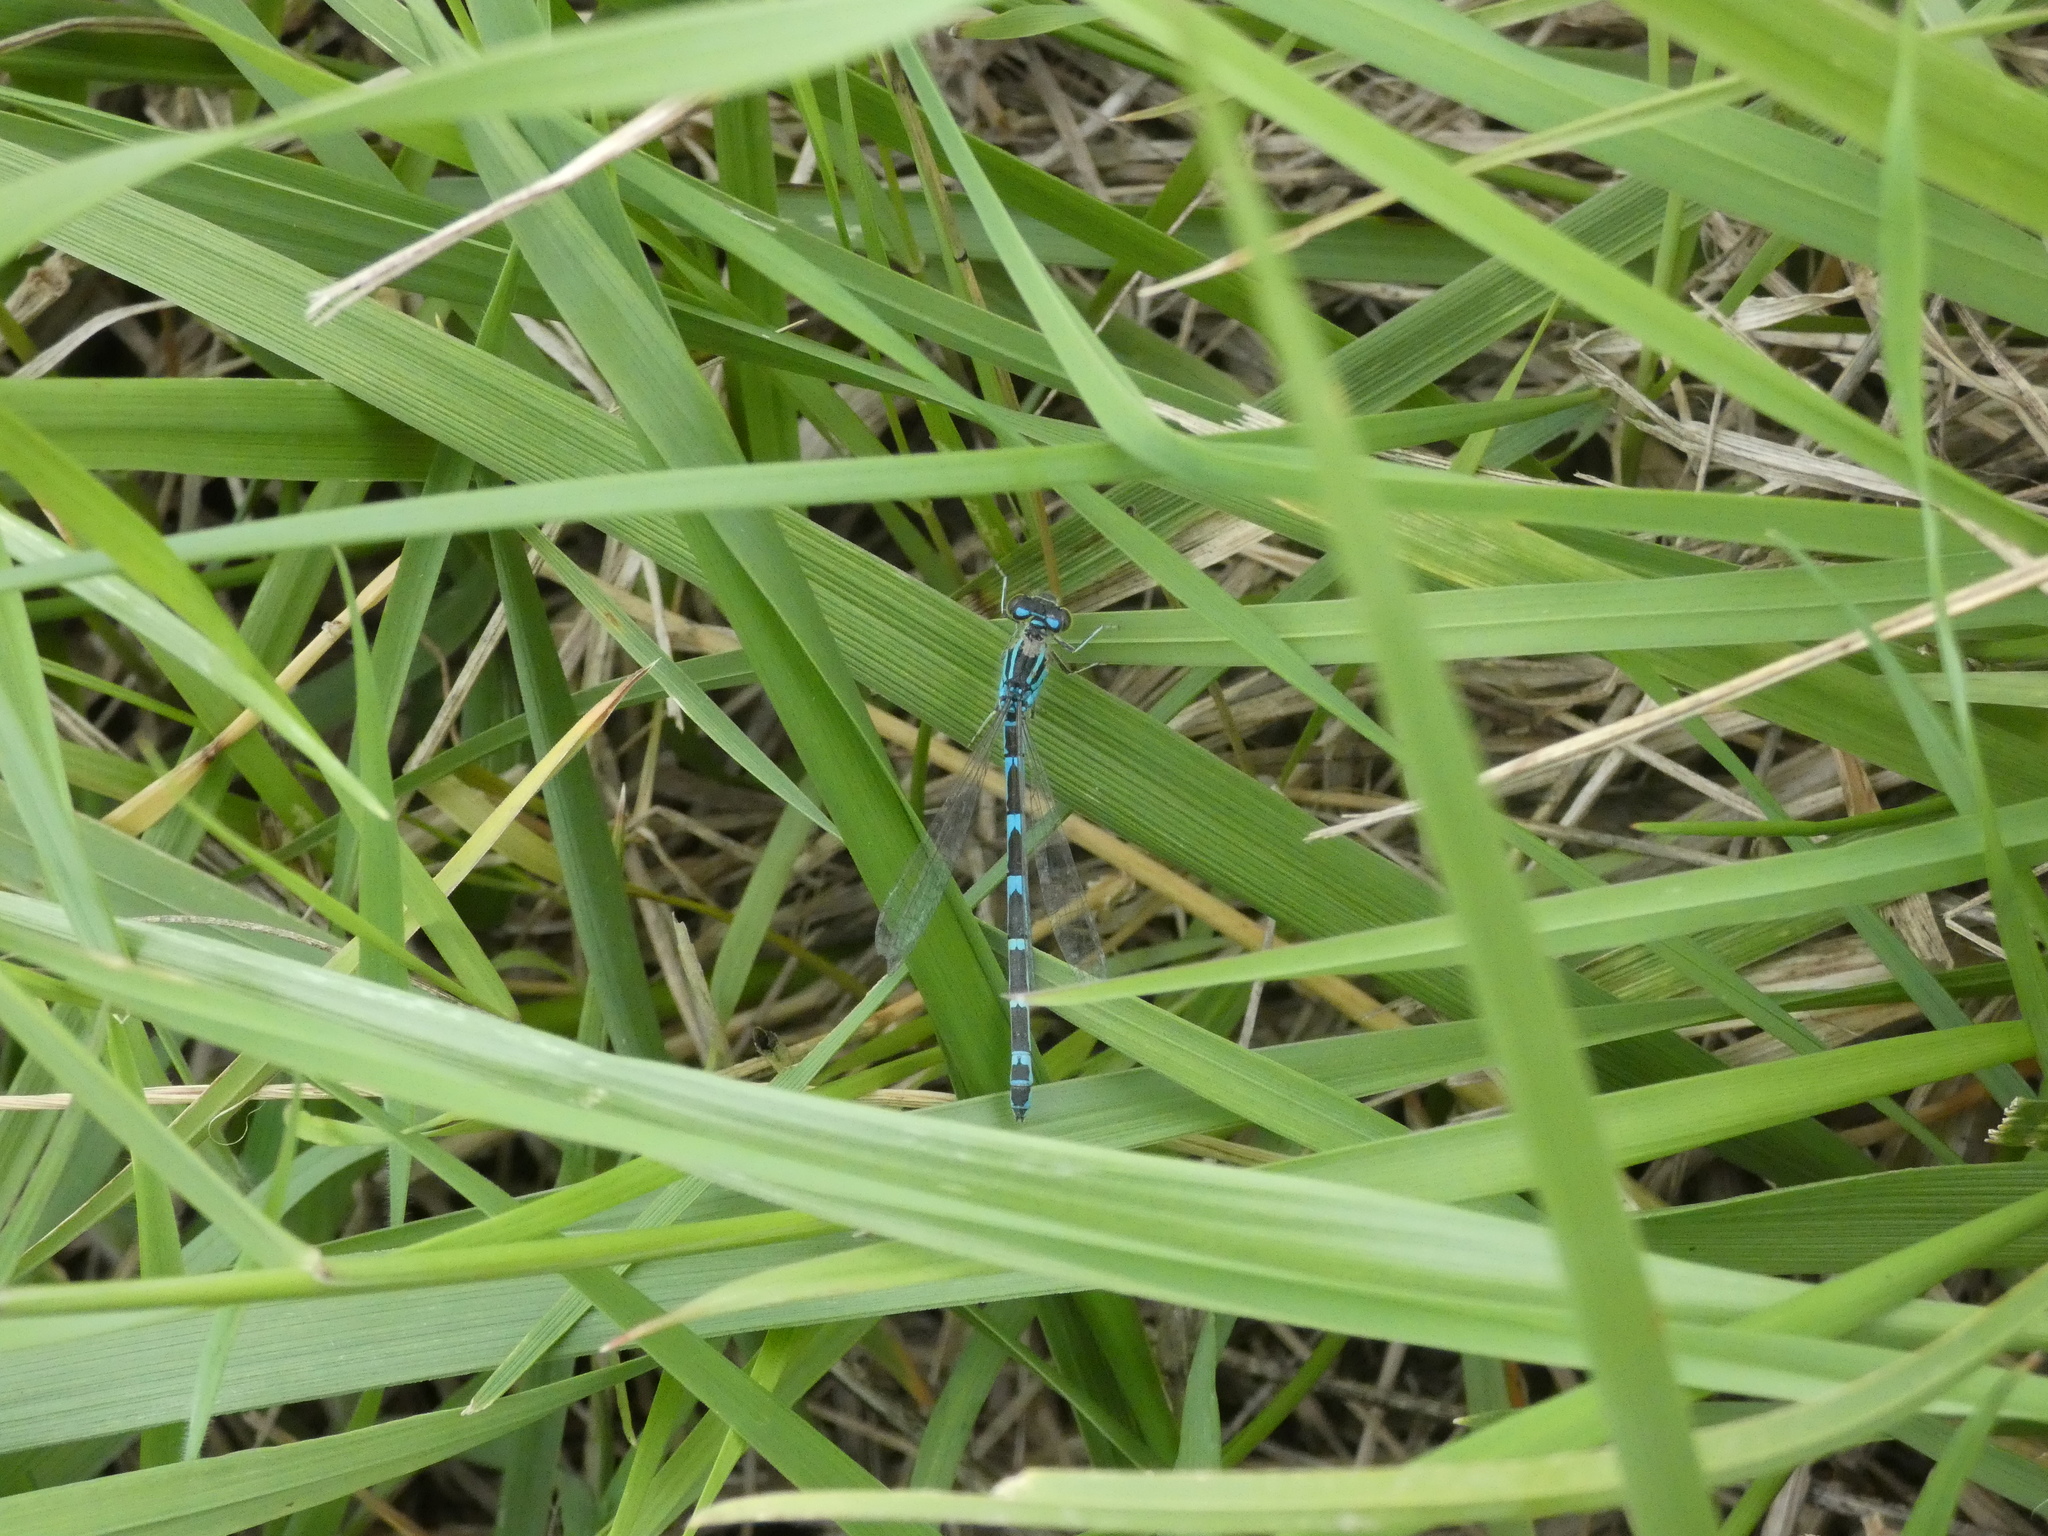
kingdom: Animalia
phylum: Arthropoda
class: Insecta
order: Odonata
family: Coenagrionidae
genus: Coenagrion
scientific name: Coenagrion scitulum
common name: Dainty bluet
